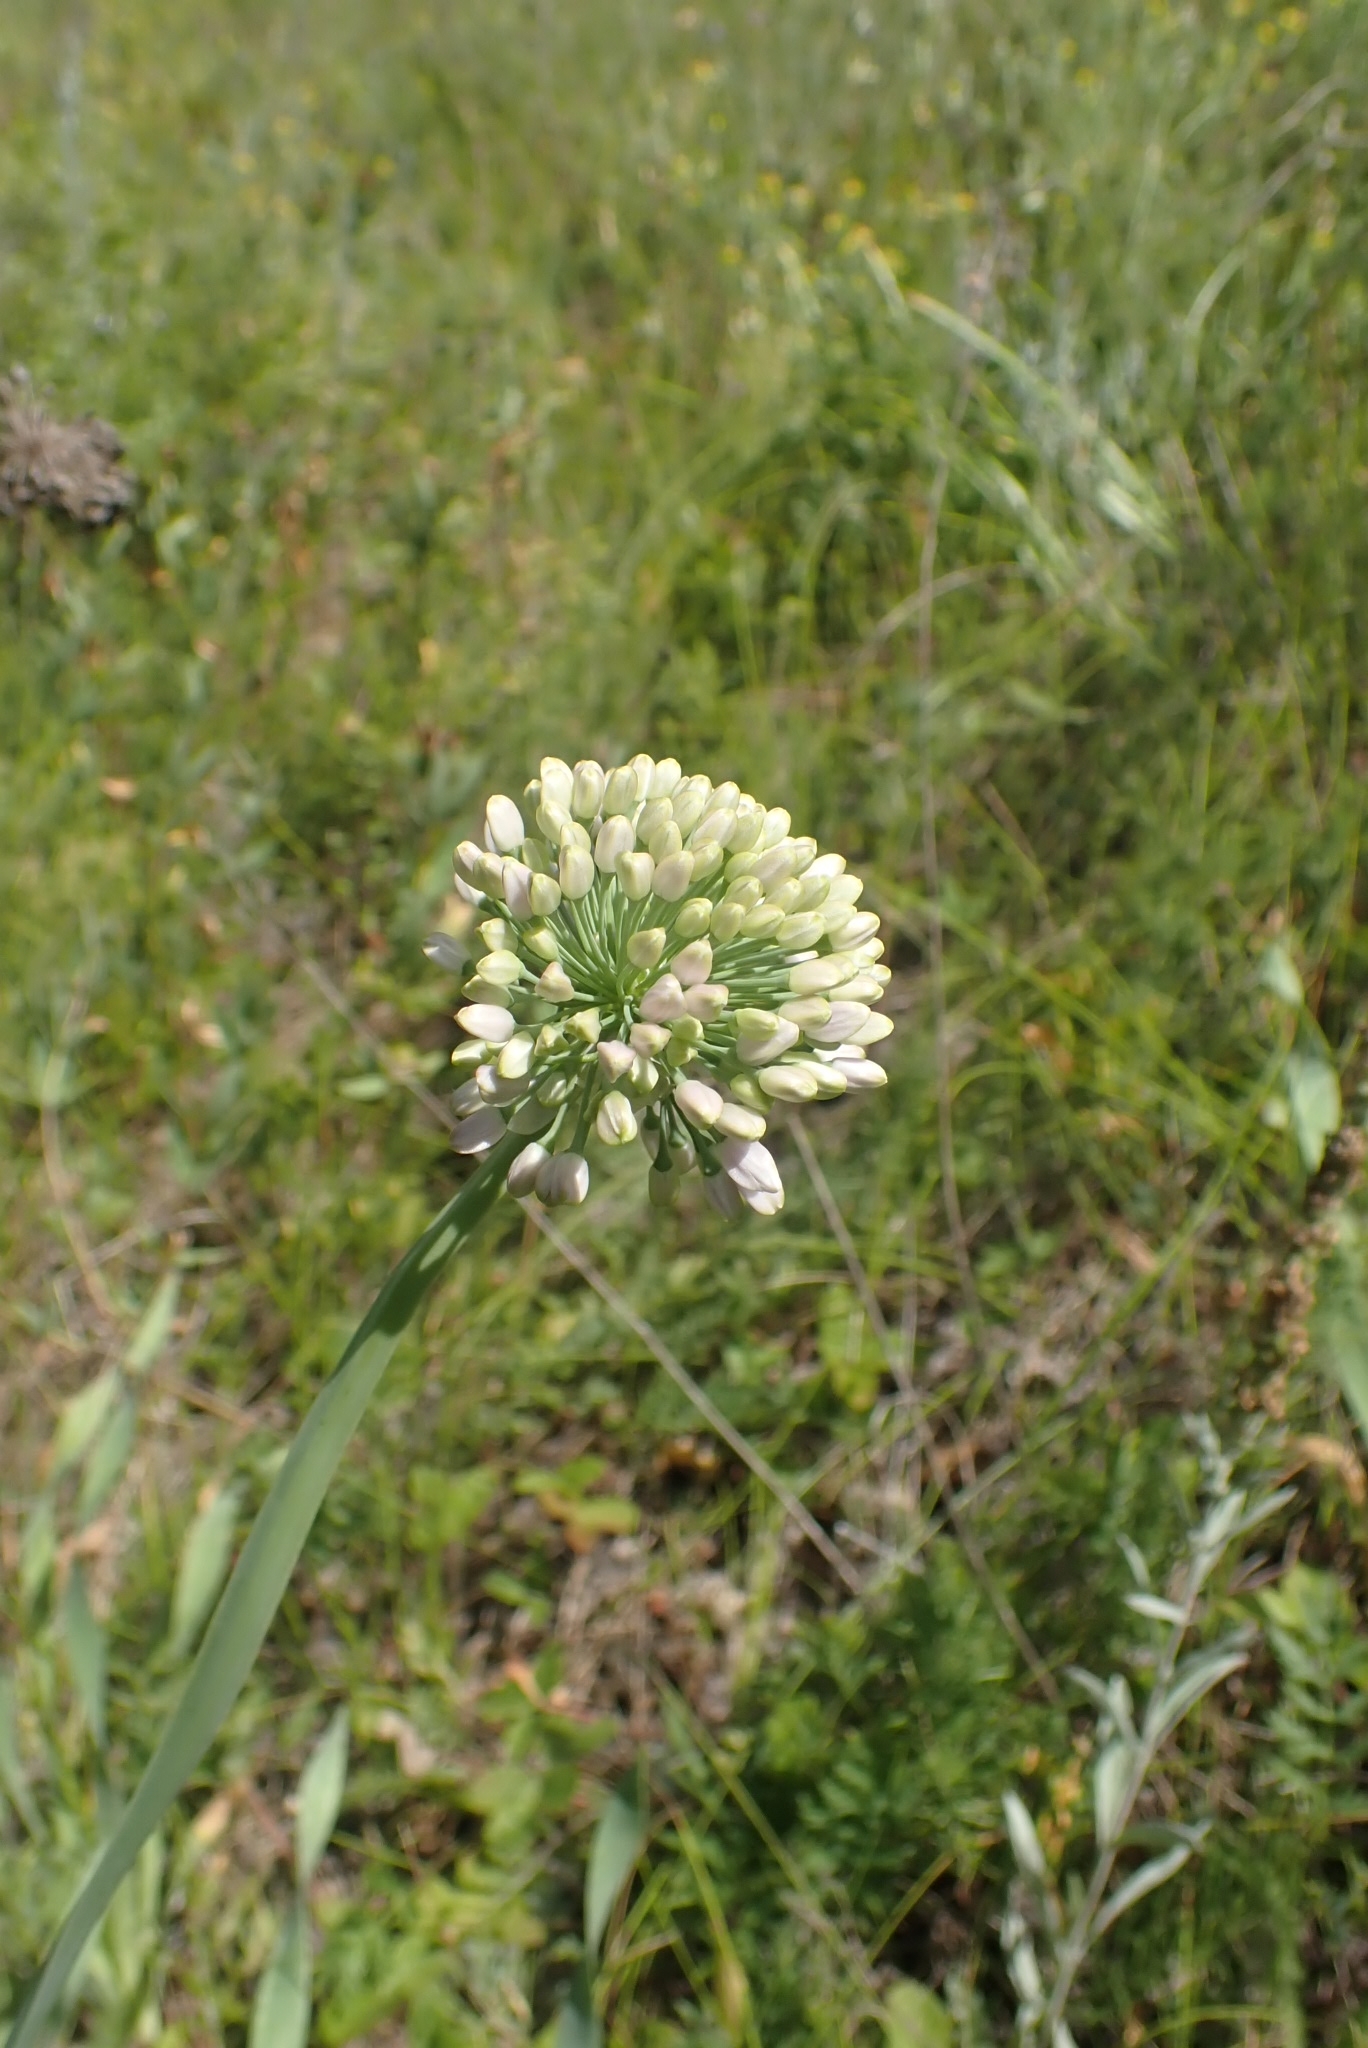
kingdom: Plantae
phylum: Tracheophyta
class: Liliopsida
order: Asparagales
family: Amaryllidaceae
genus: Allium
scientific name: Allium nutans
